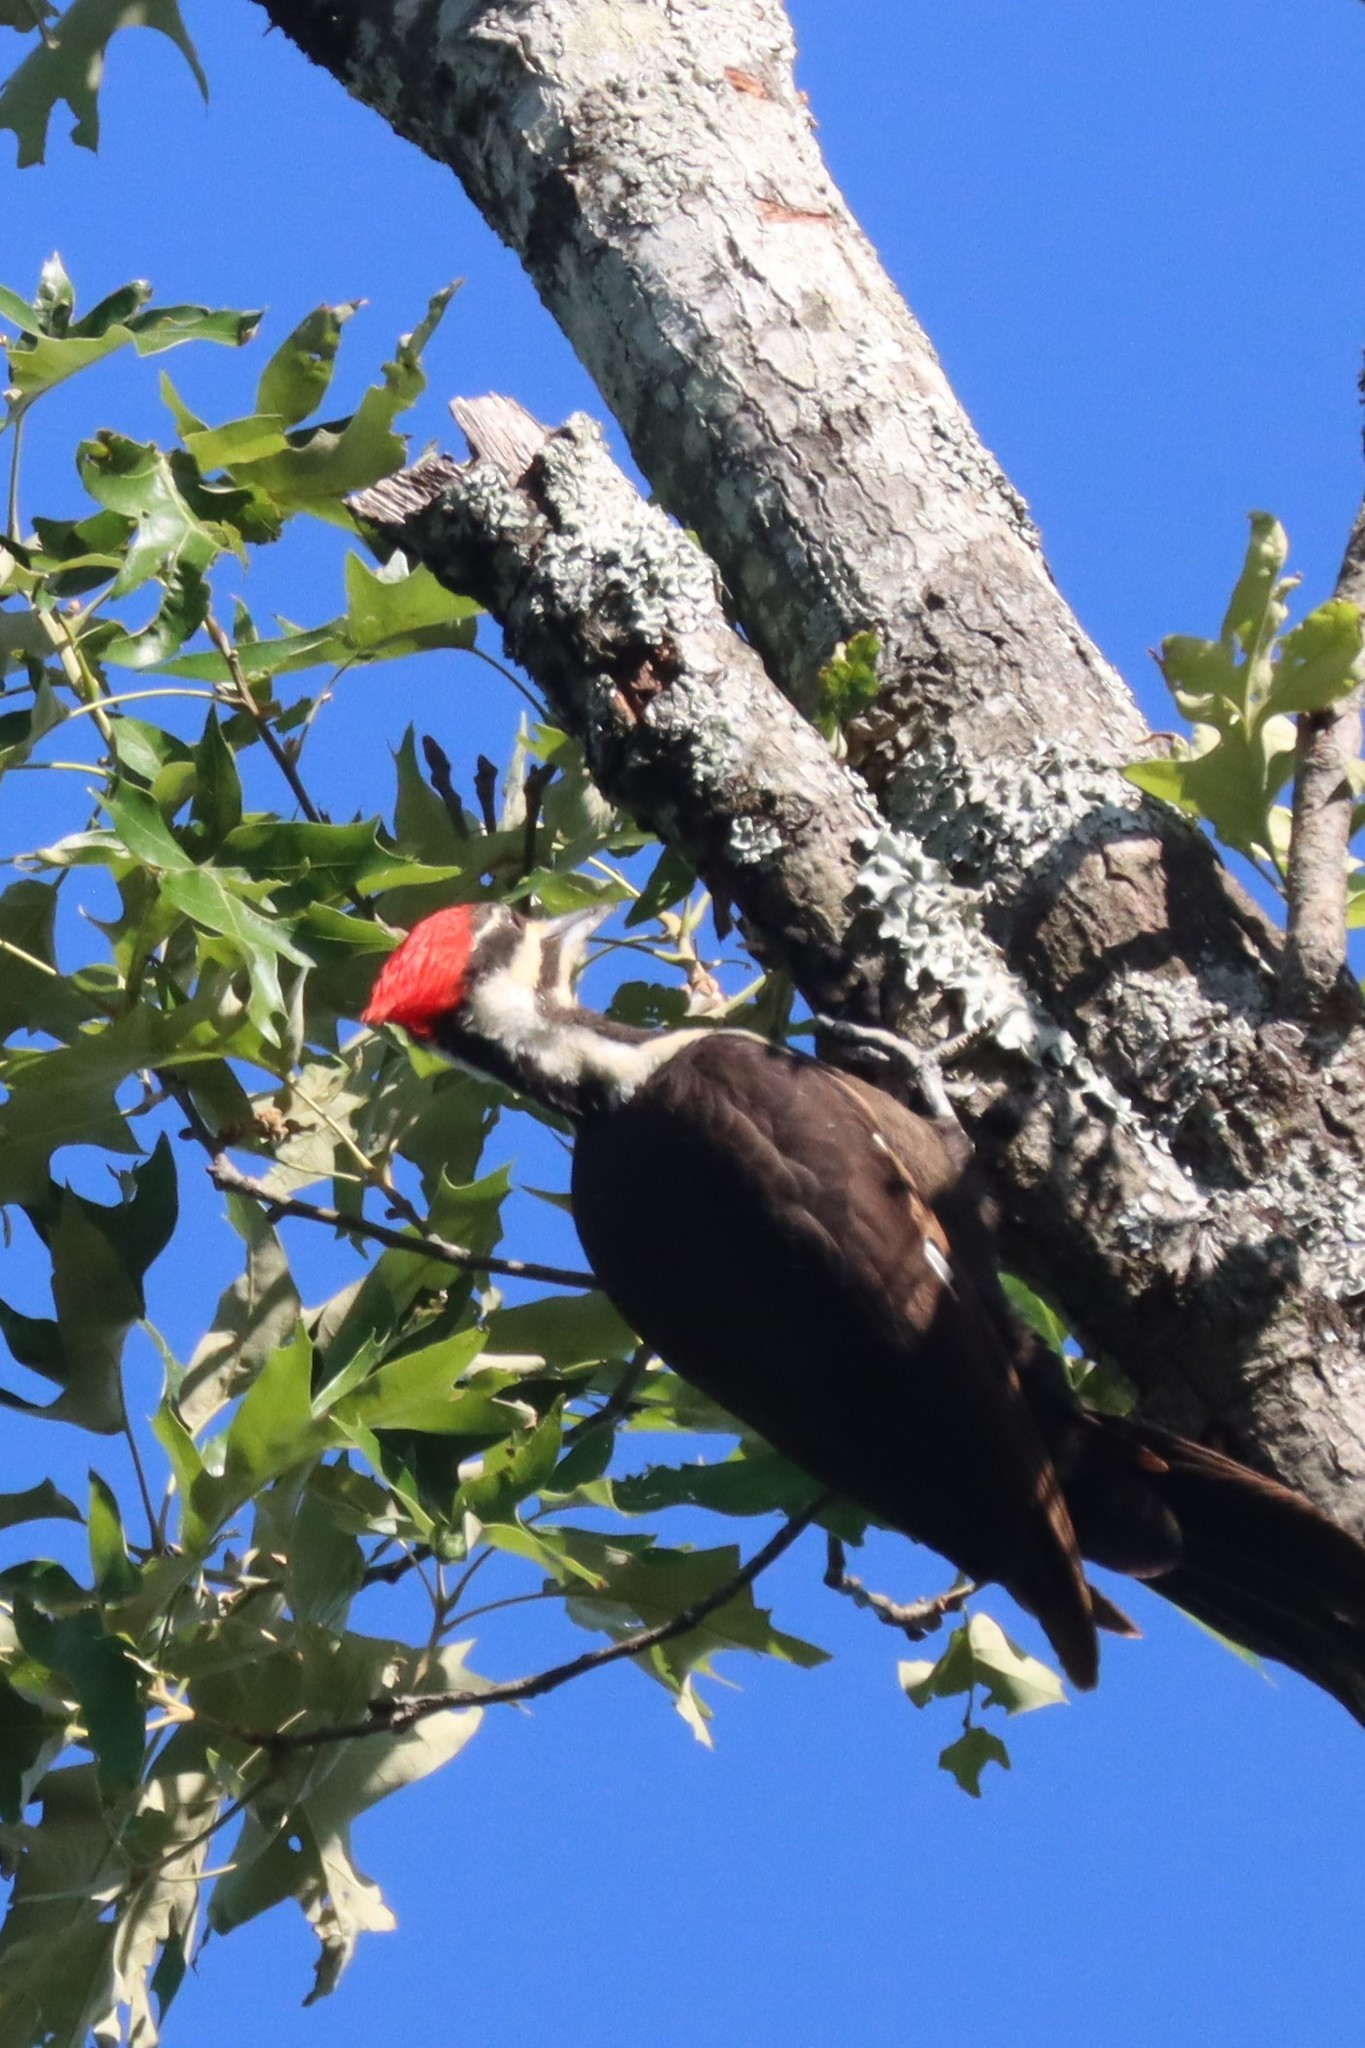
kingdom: Animalia
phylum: Chordata
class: Aves
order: Piciformes
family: Picidae
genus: Dryocopus
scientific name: Dryocopus pileatus
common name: Pileated woodpecker
